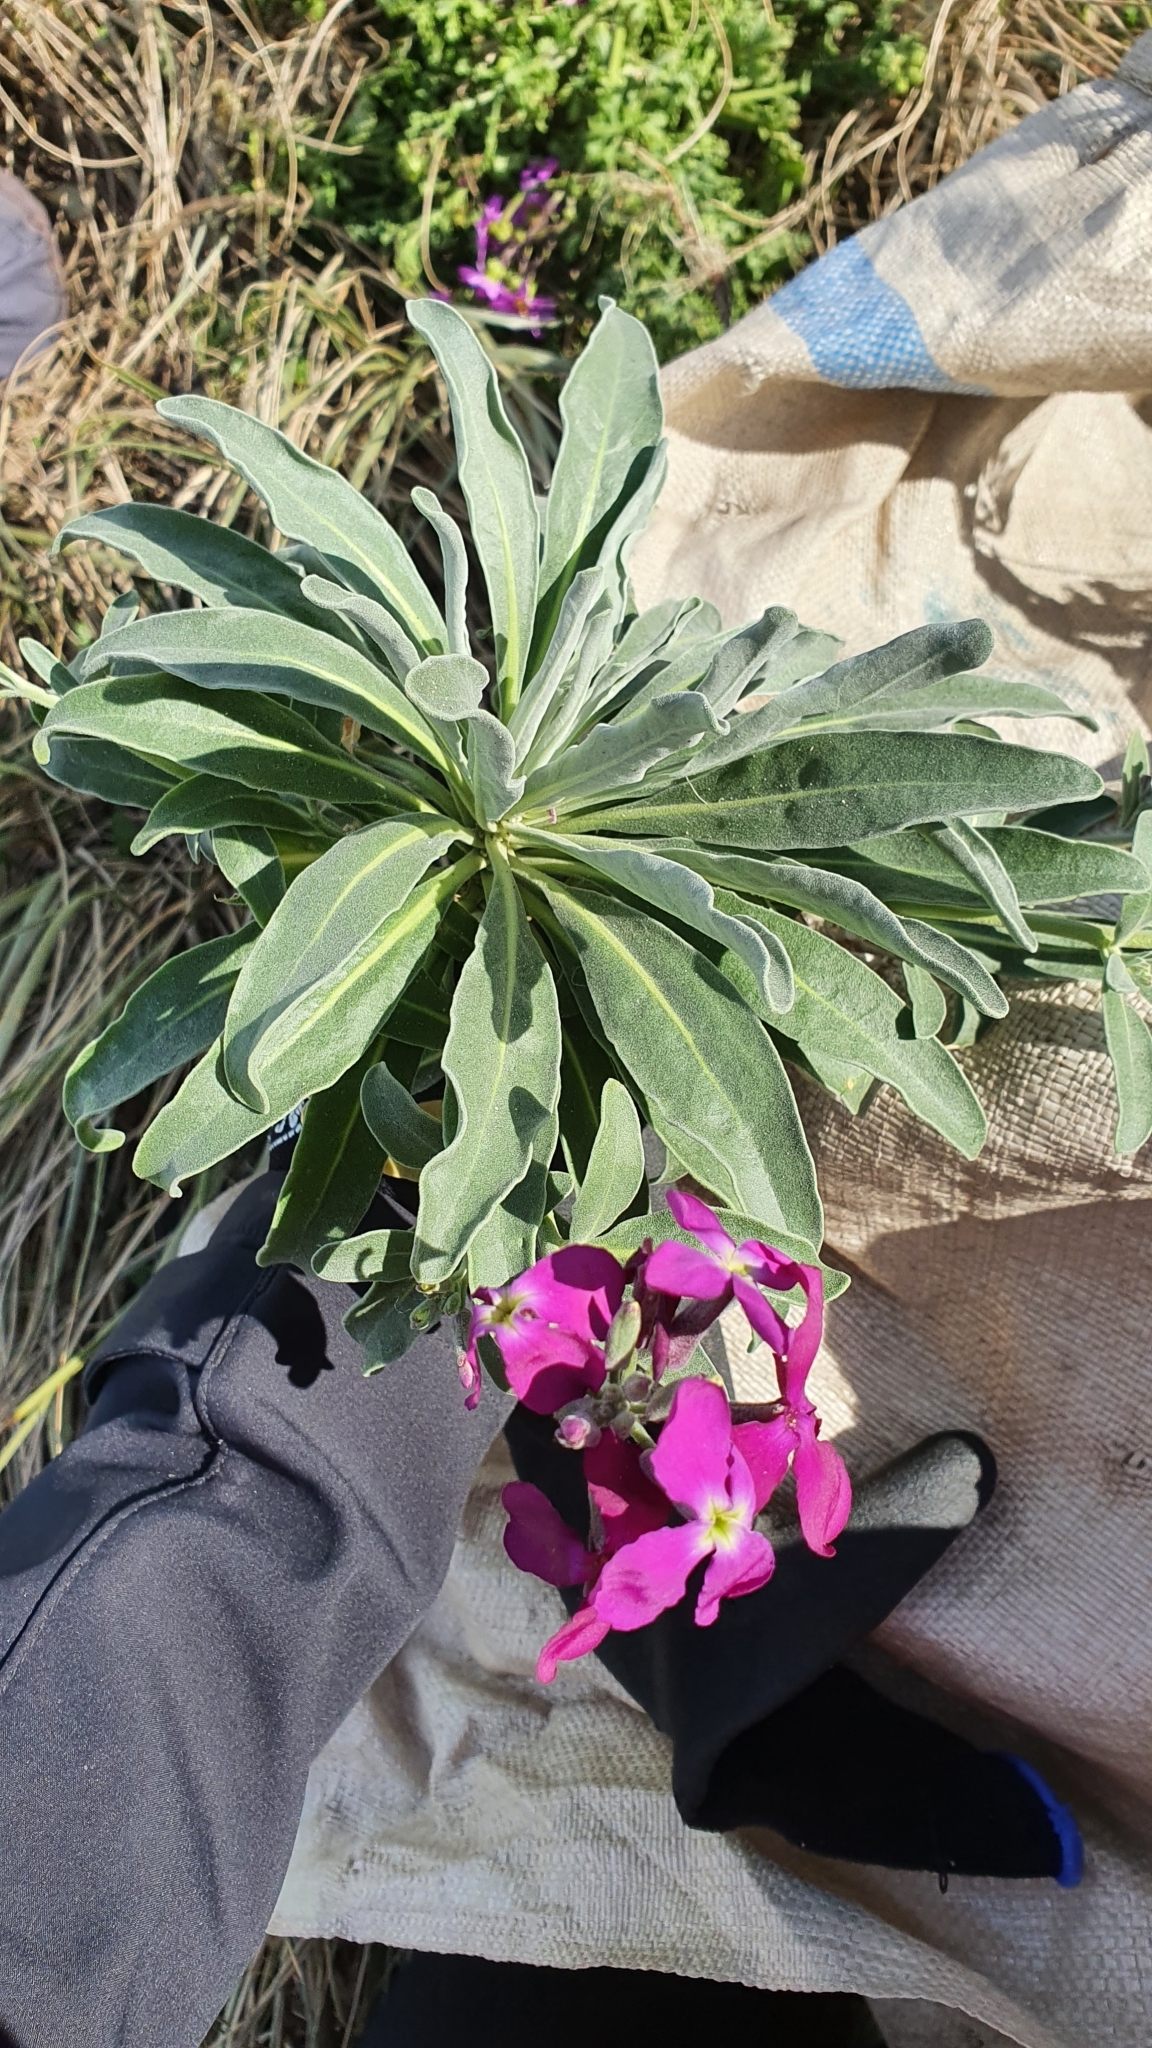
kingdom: Plantae
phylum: Tracheophyta
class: Magnoliopsida
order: Brassicales
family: Brassicaceae
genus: Matthiola
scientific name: Matthiola incana
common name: Hoary stock
